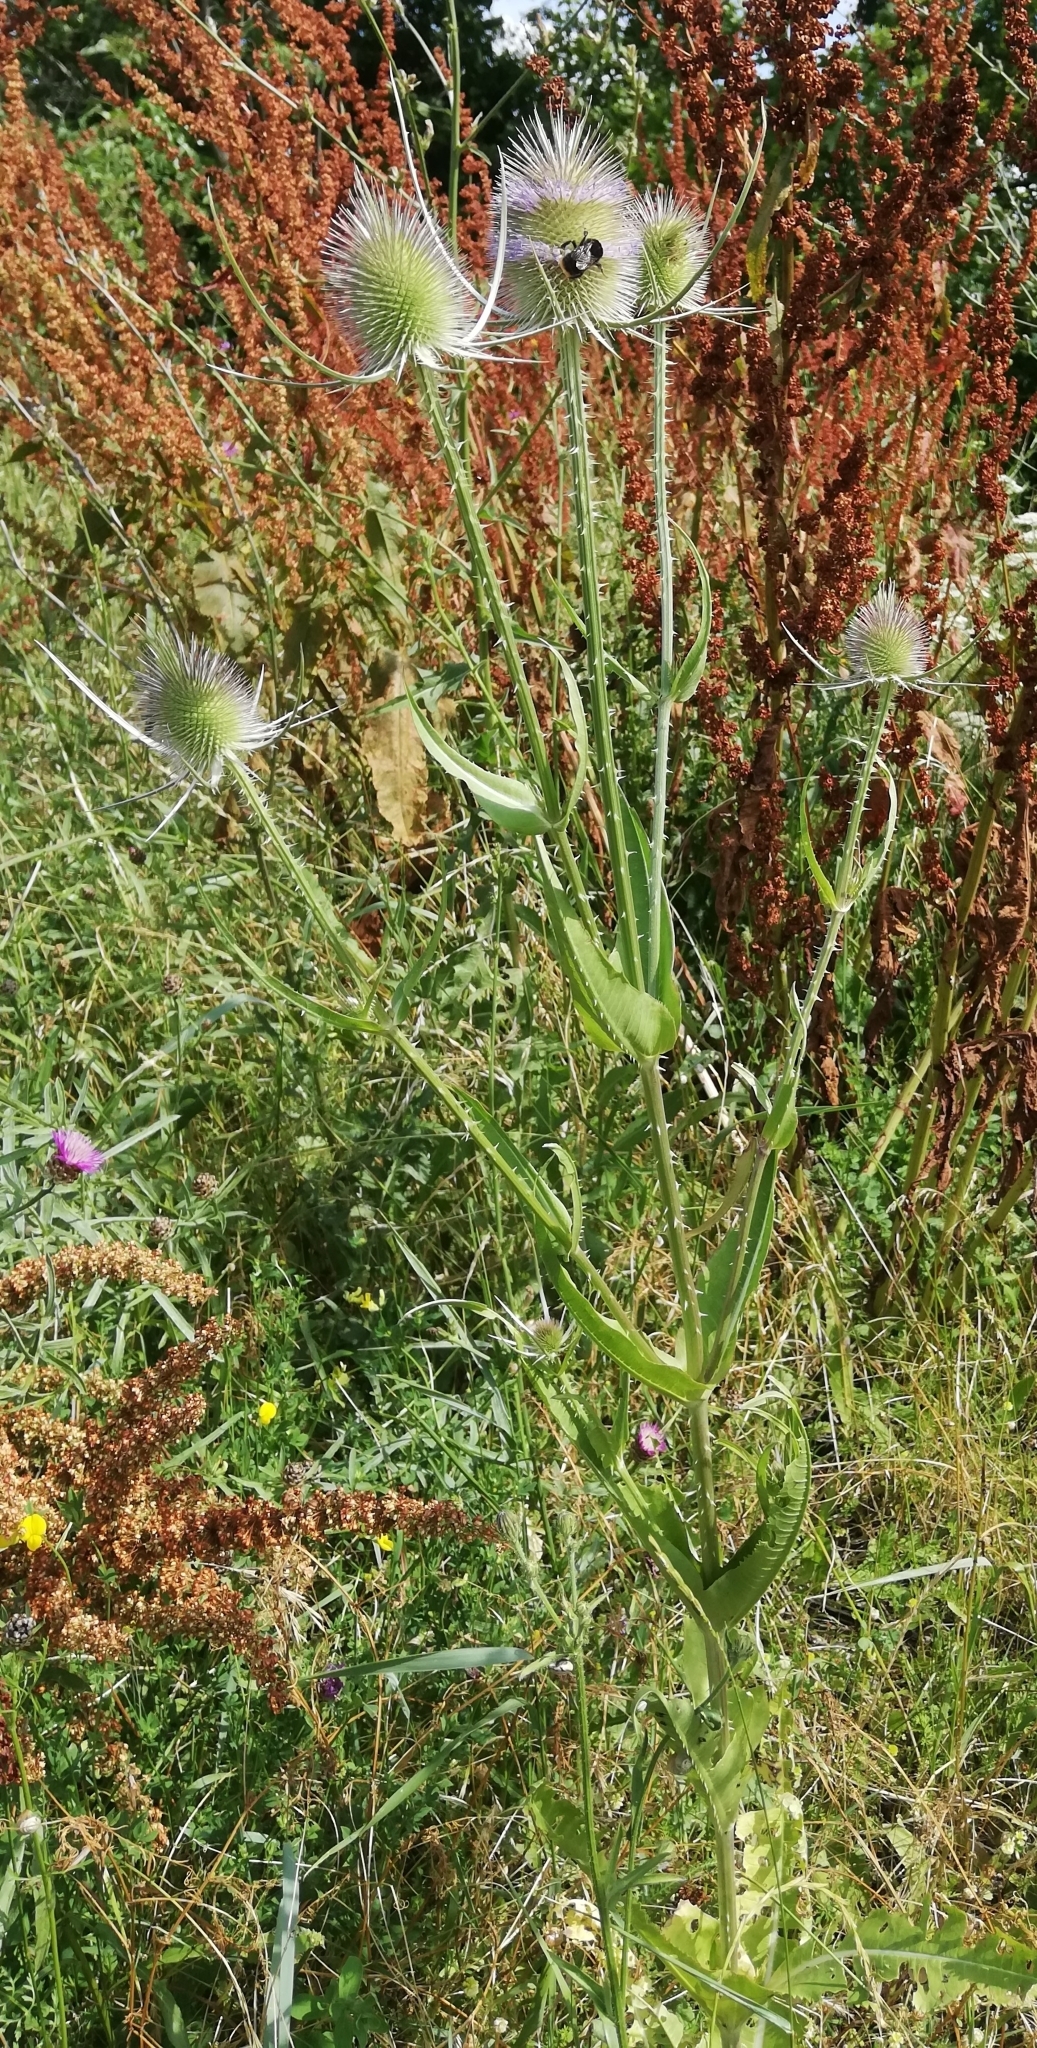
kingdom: Plantae
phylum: Tracheophyta
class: Magnoliopsida
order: Dipsacales
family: Caprifoliaceae
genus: Dipsacus
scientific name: Dipsacus fullonum
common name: Teasel
